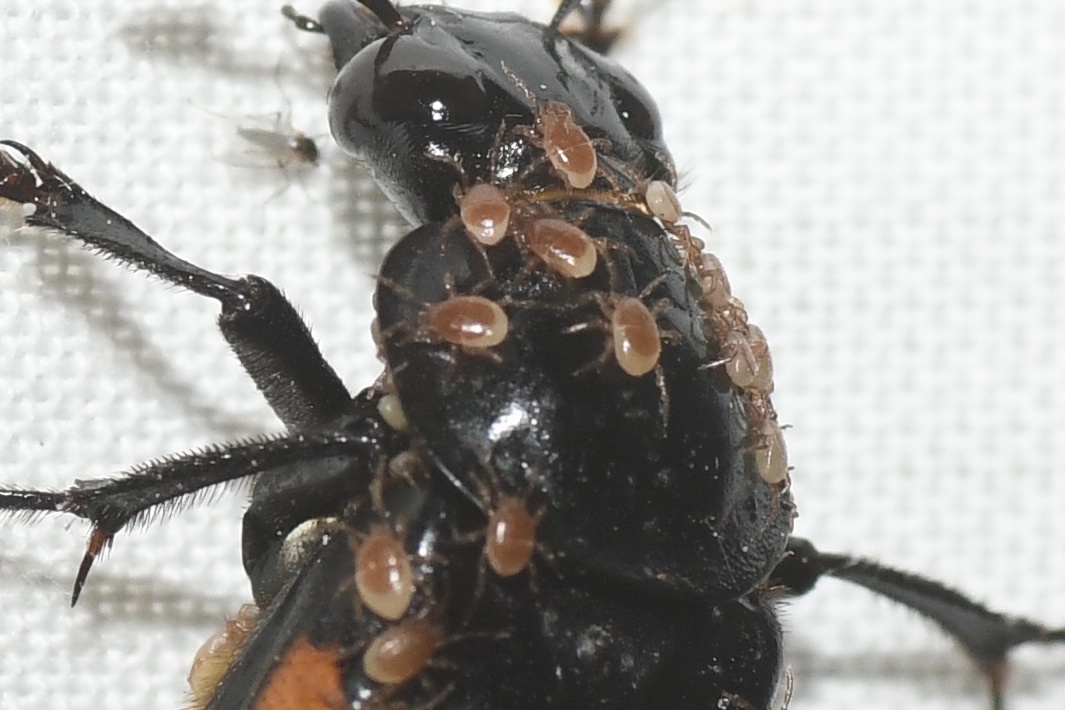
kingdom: Animalia
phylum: Arthropoda
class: Arachnida
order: Mesostigmata
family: Parasitidae
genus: Poecilochirus
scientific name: Poecilochirus
